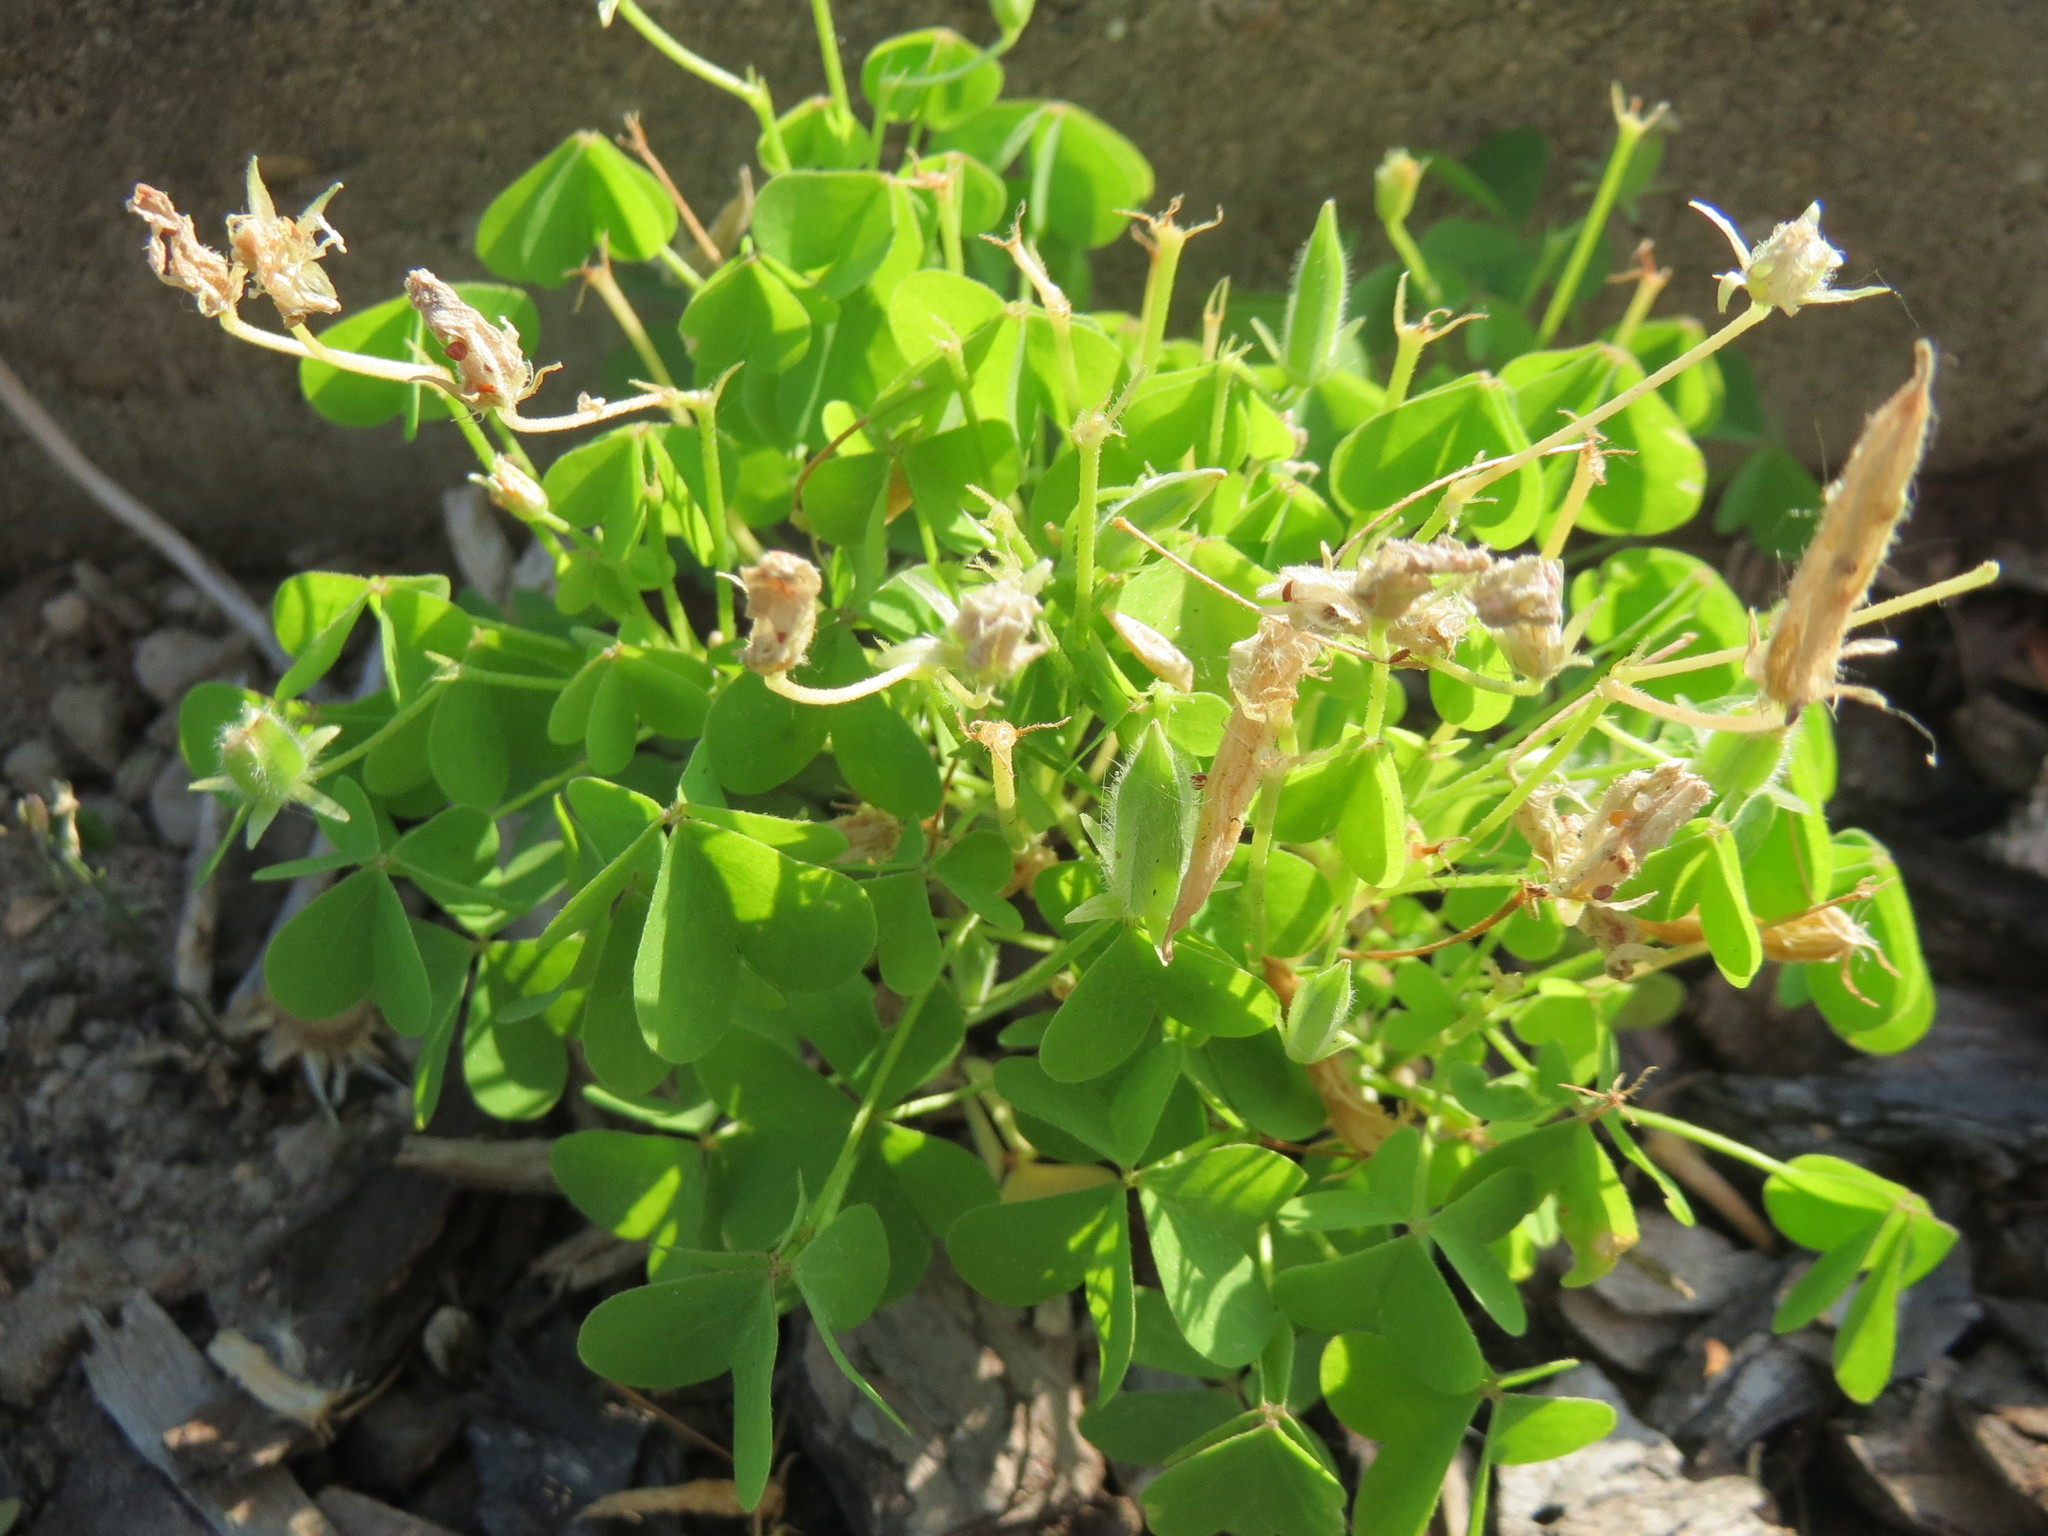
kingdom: Plantae
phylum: Tracheophyta
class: Magnoliopsida
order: Oxalidales
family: Oxalidaceae
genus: Oxalis
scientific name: Oxalis stricta
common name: Upright yellow-sorrel
